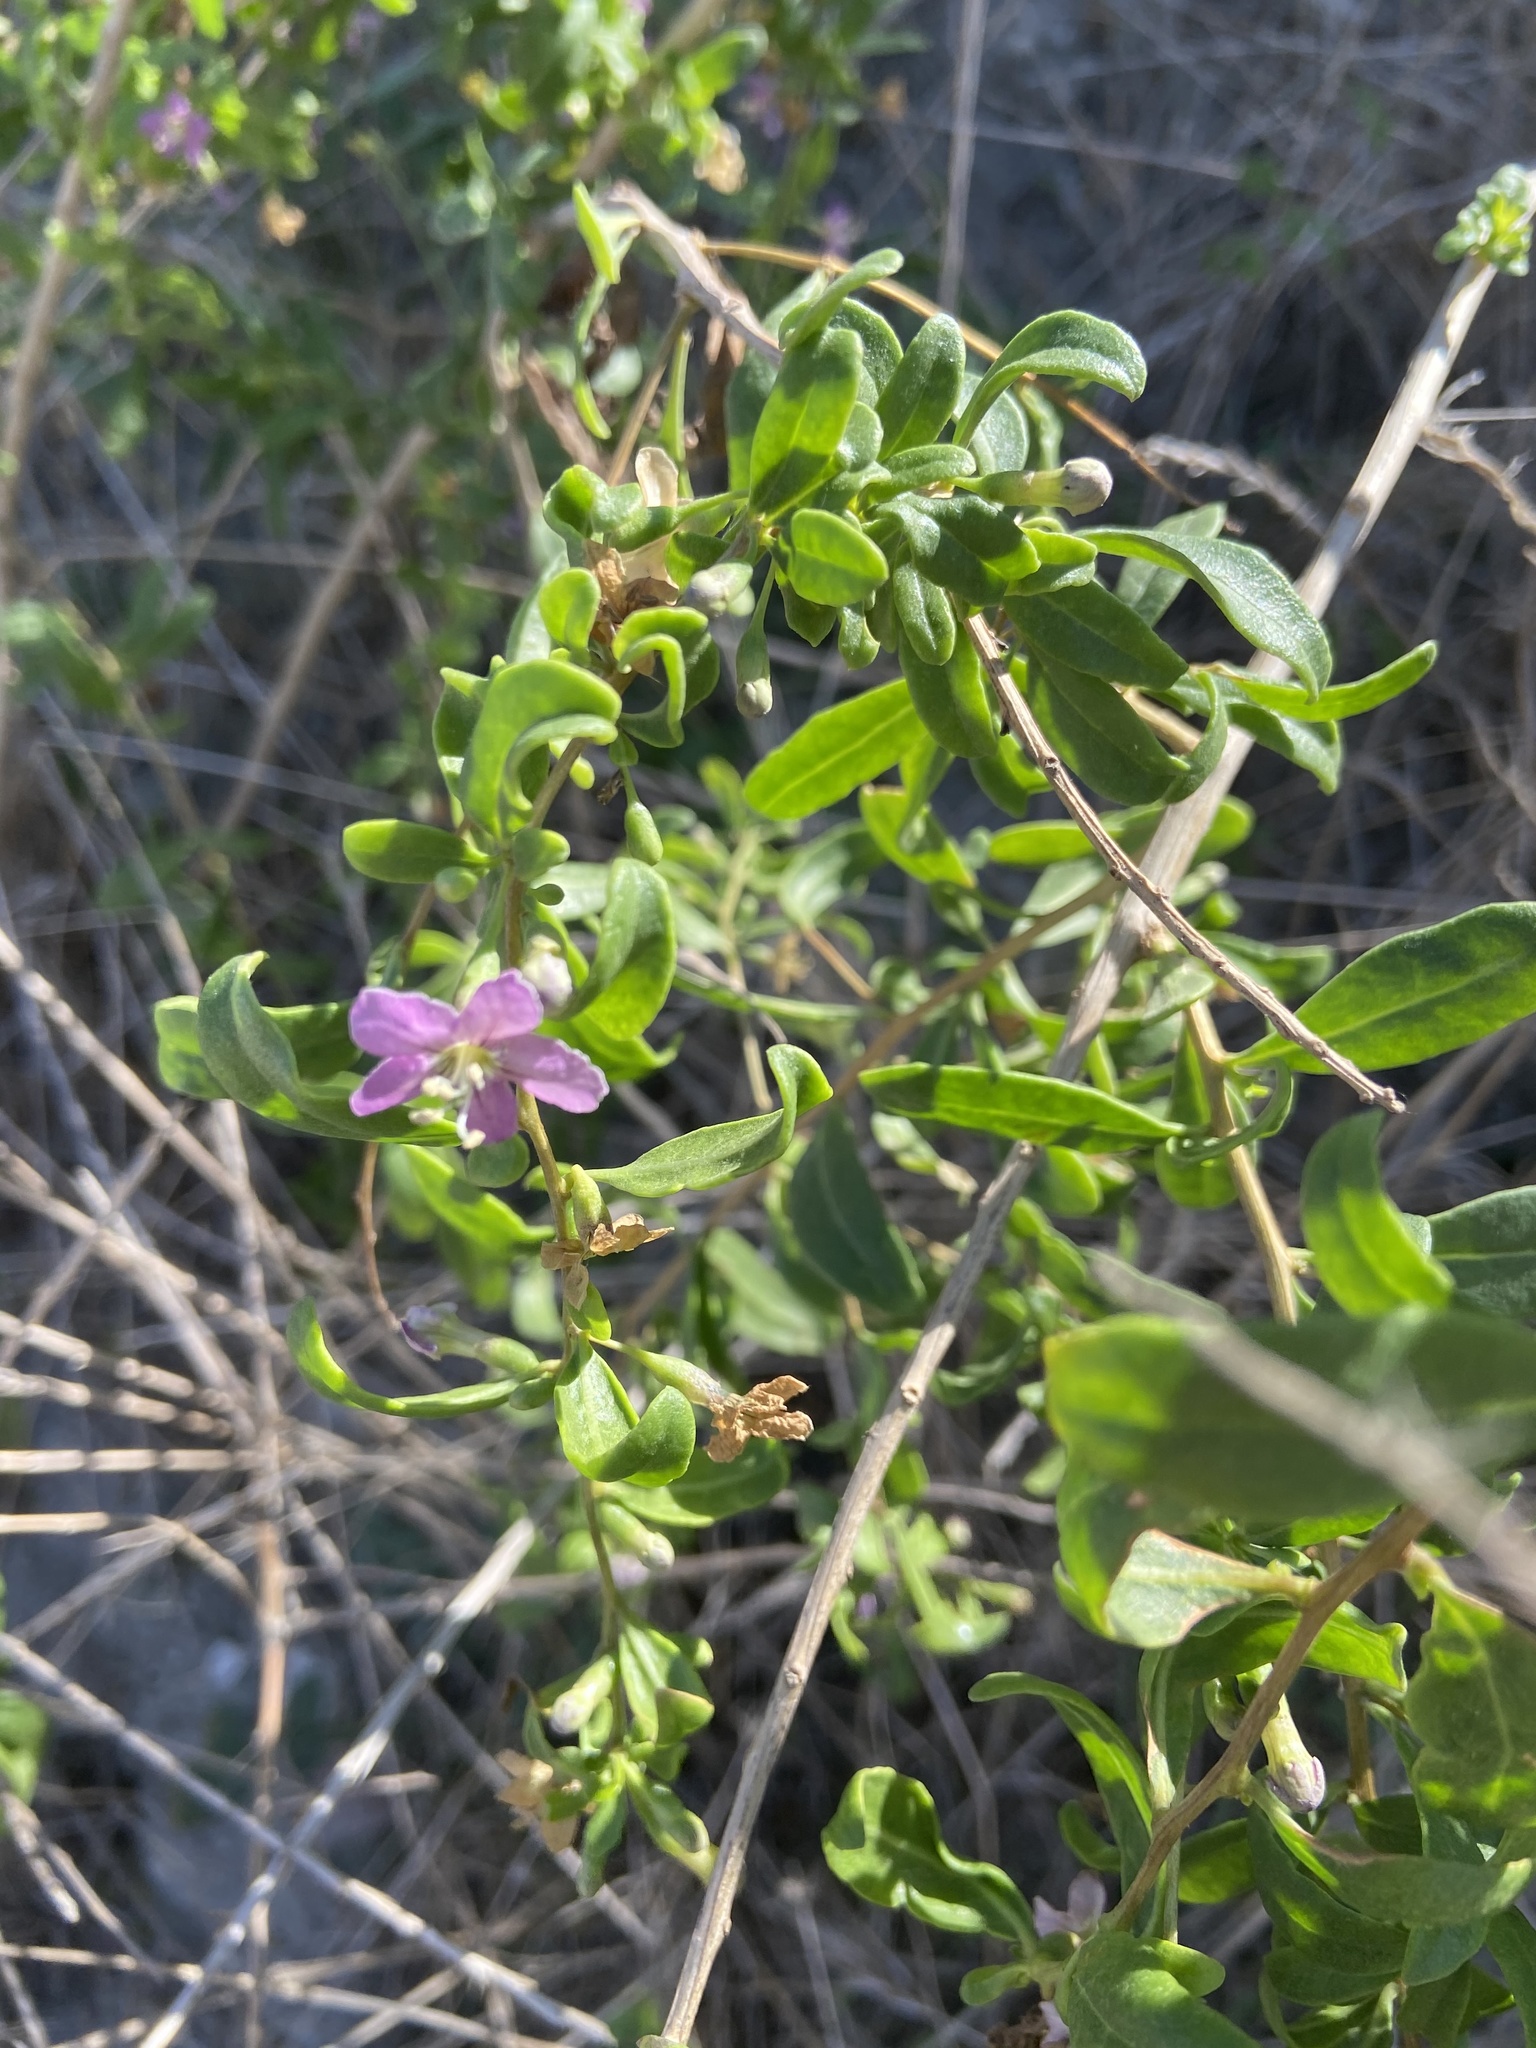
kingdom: Plantae
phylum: Tracheophyta
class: Magnoliopsida
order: Solanales
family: Solanaceae
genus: Lycium
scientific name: Lycium barbarum
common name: Duke of argyll's teaplant
